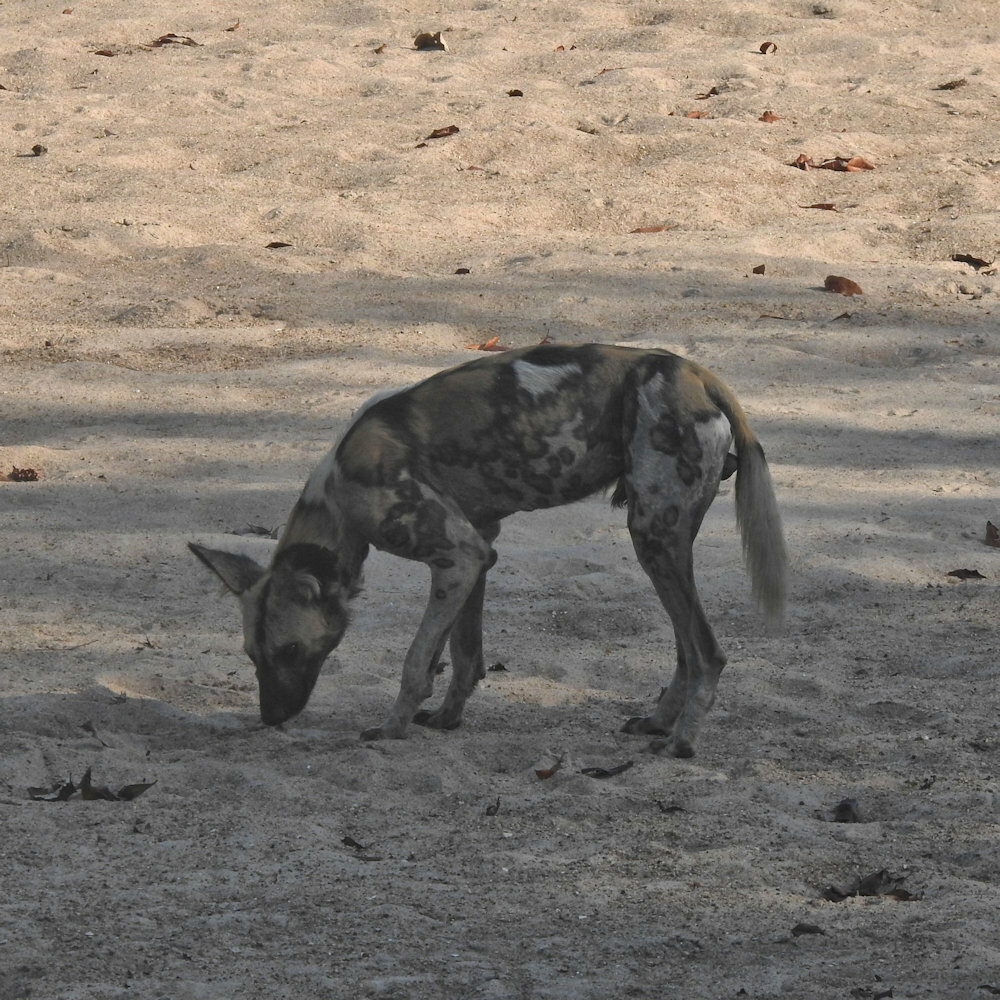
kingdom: Animalia
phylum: Chordata
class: Mammalia
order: Carnivora
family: Canidae
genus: Lycaon
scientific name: Lycaon pictus
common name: African wild dog
